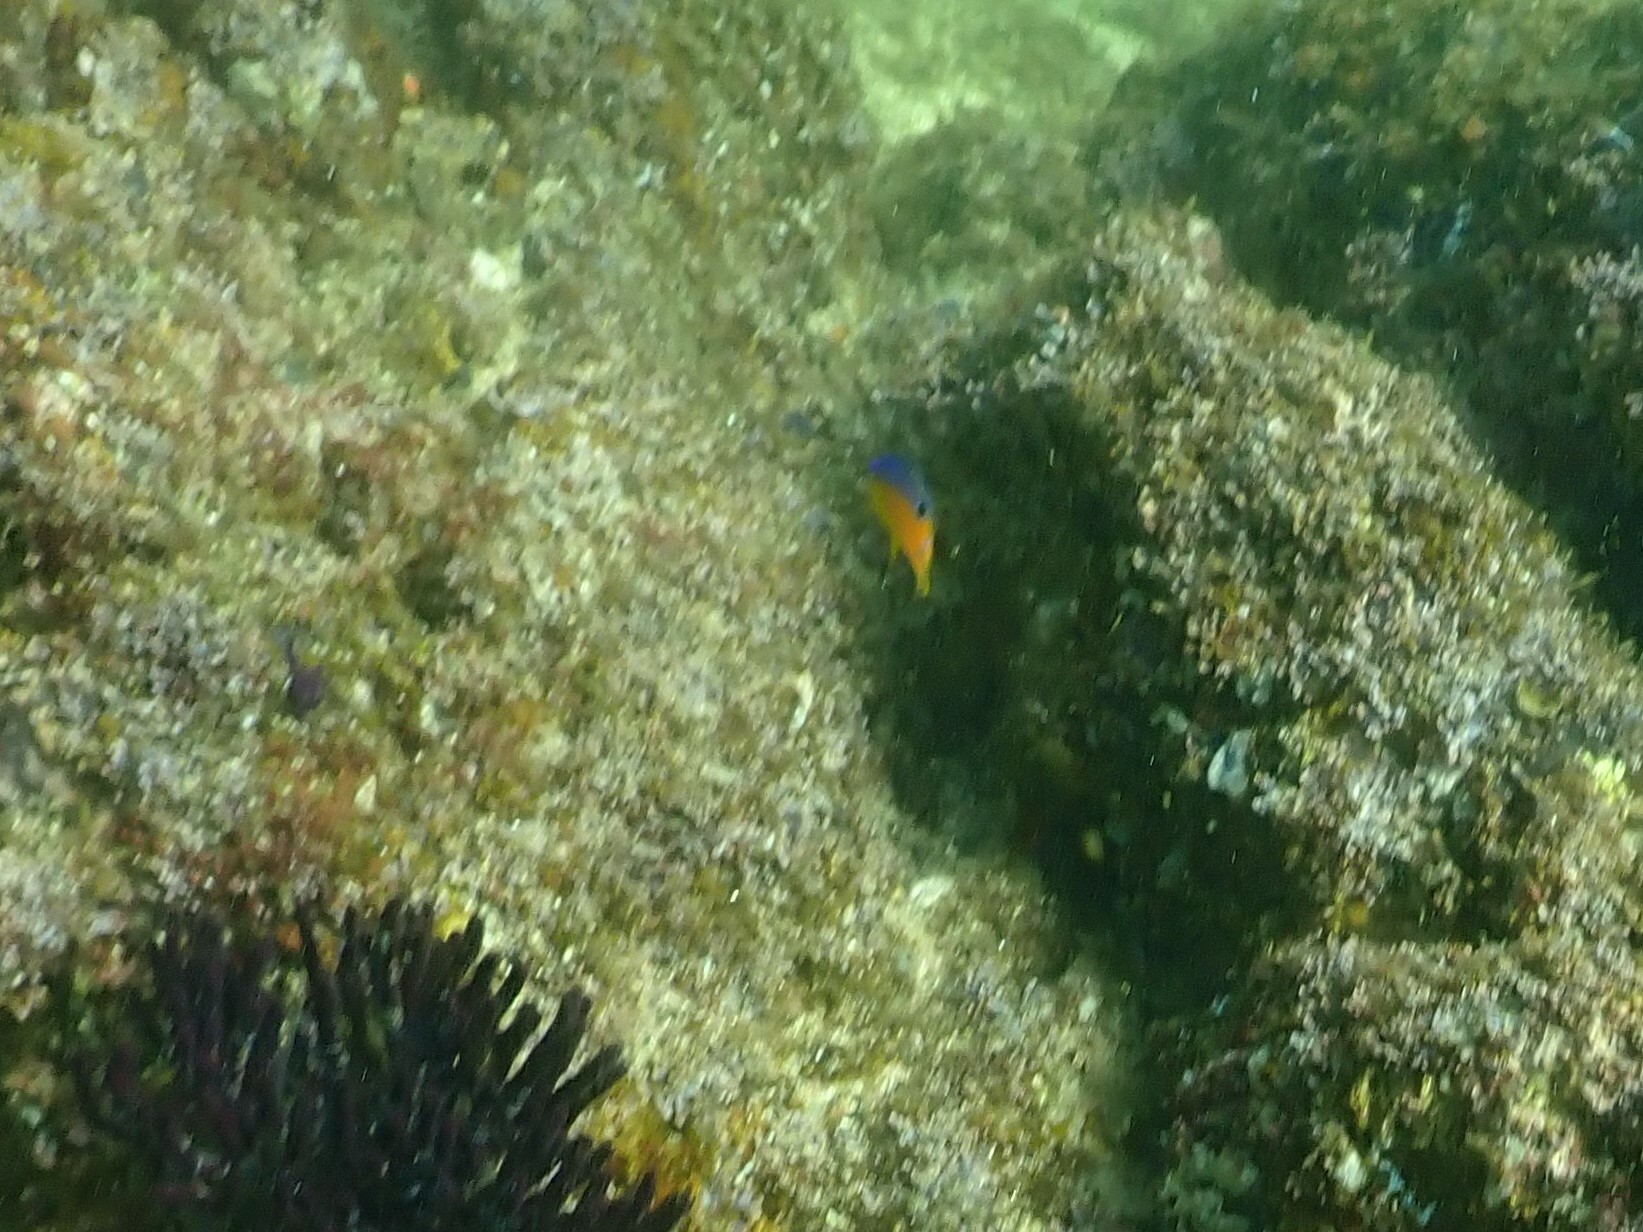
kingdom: Animalia
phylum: Chordata
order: Perciformes
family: Pomacentridae
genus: Stegastes
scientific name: Stegastes flavilatus
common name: Beaubrummel
